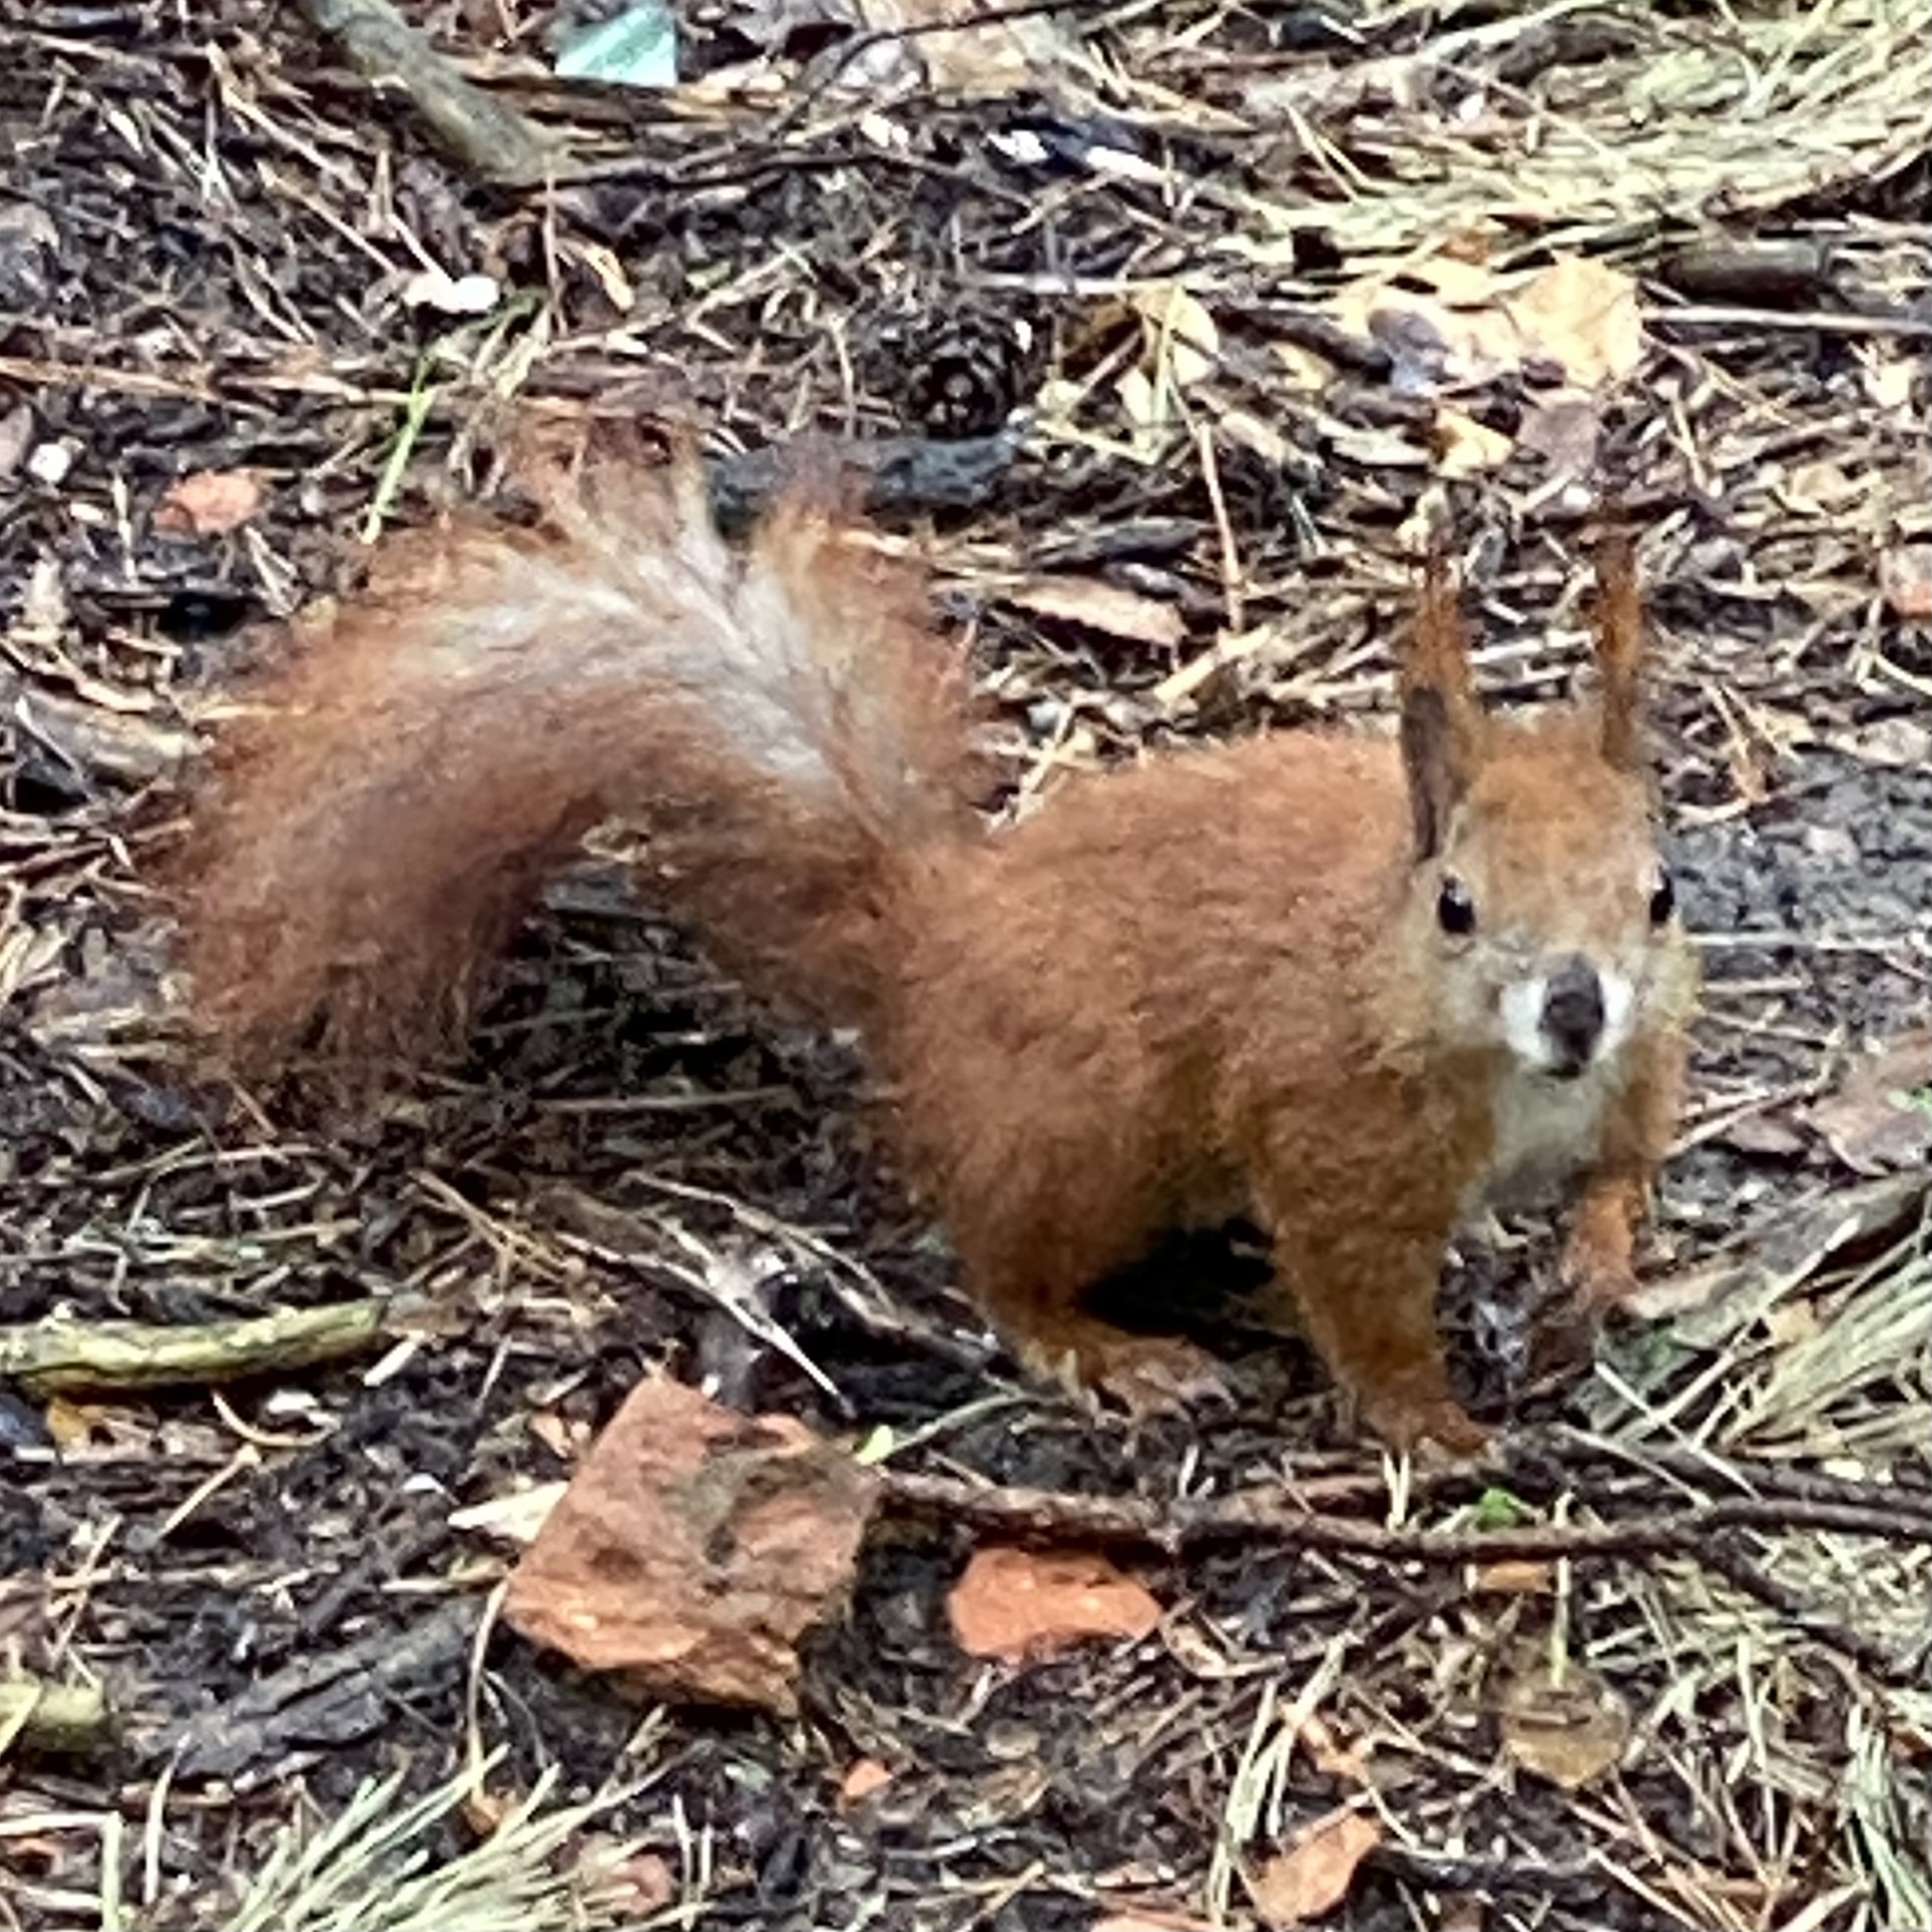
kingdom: Animalia
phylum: Chordata
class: Mammalia
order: Rodentia
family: Sciuridae
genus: Sciurus
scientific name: Sciurus vulgaris
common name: Eurasian red squirrel
